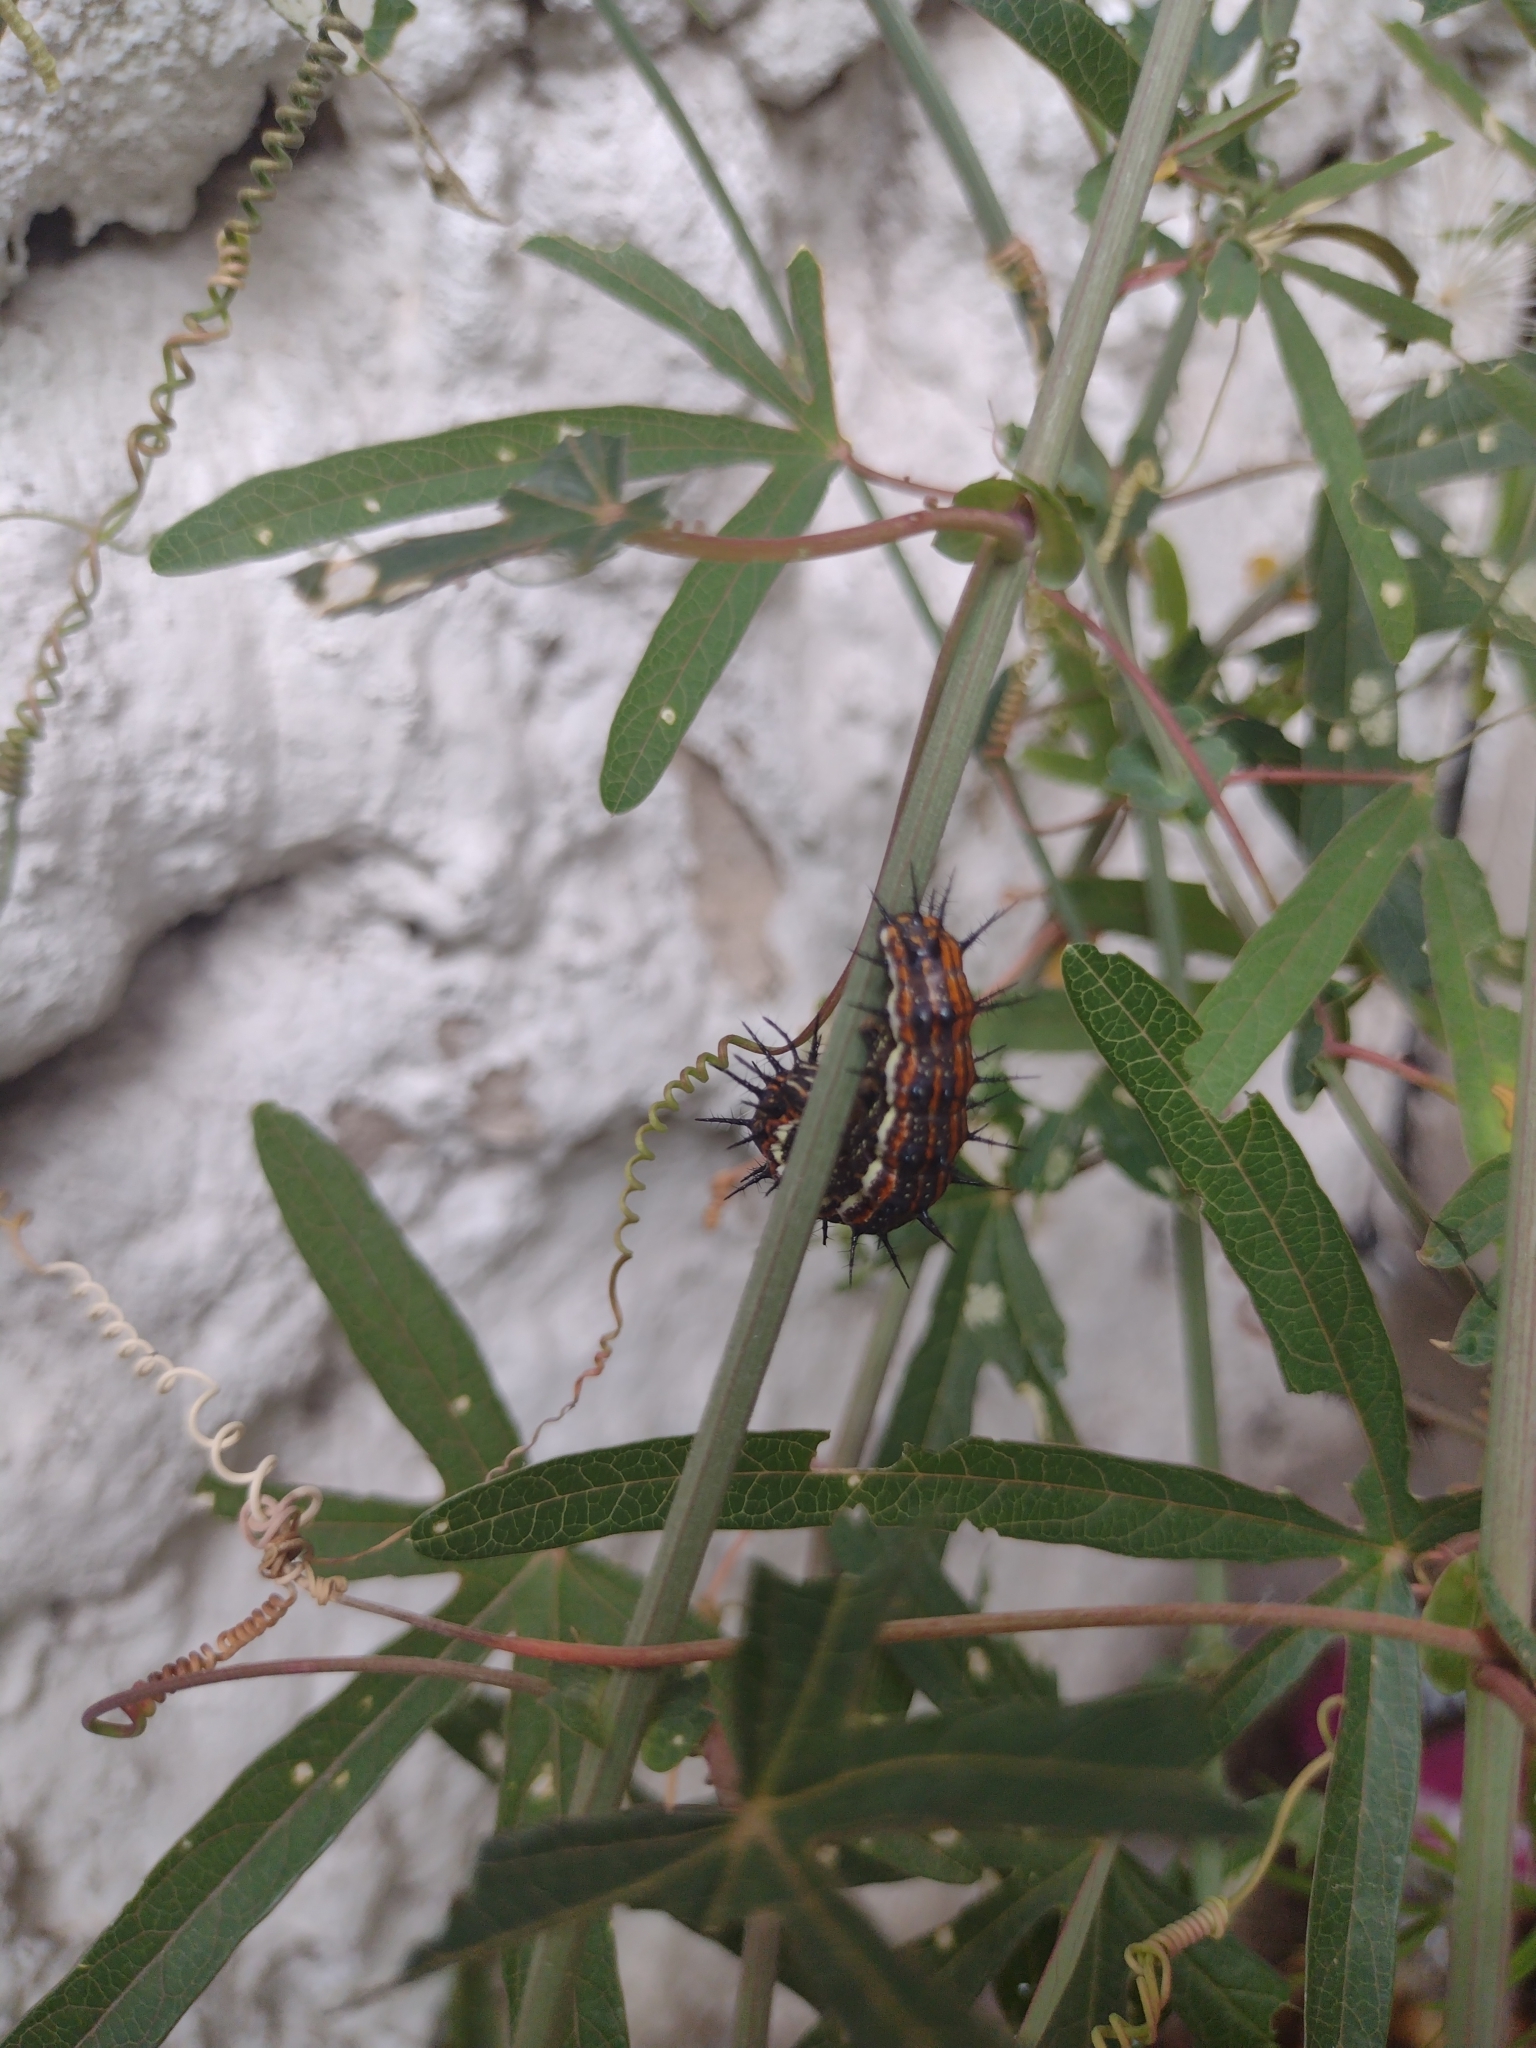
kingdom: Animalia
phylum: Arthropoda
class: Insecta
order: Lepidoptera
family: Nymphalidae
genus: Dione
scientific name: Dione vanillae
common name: Gulf fritillary
